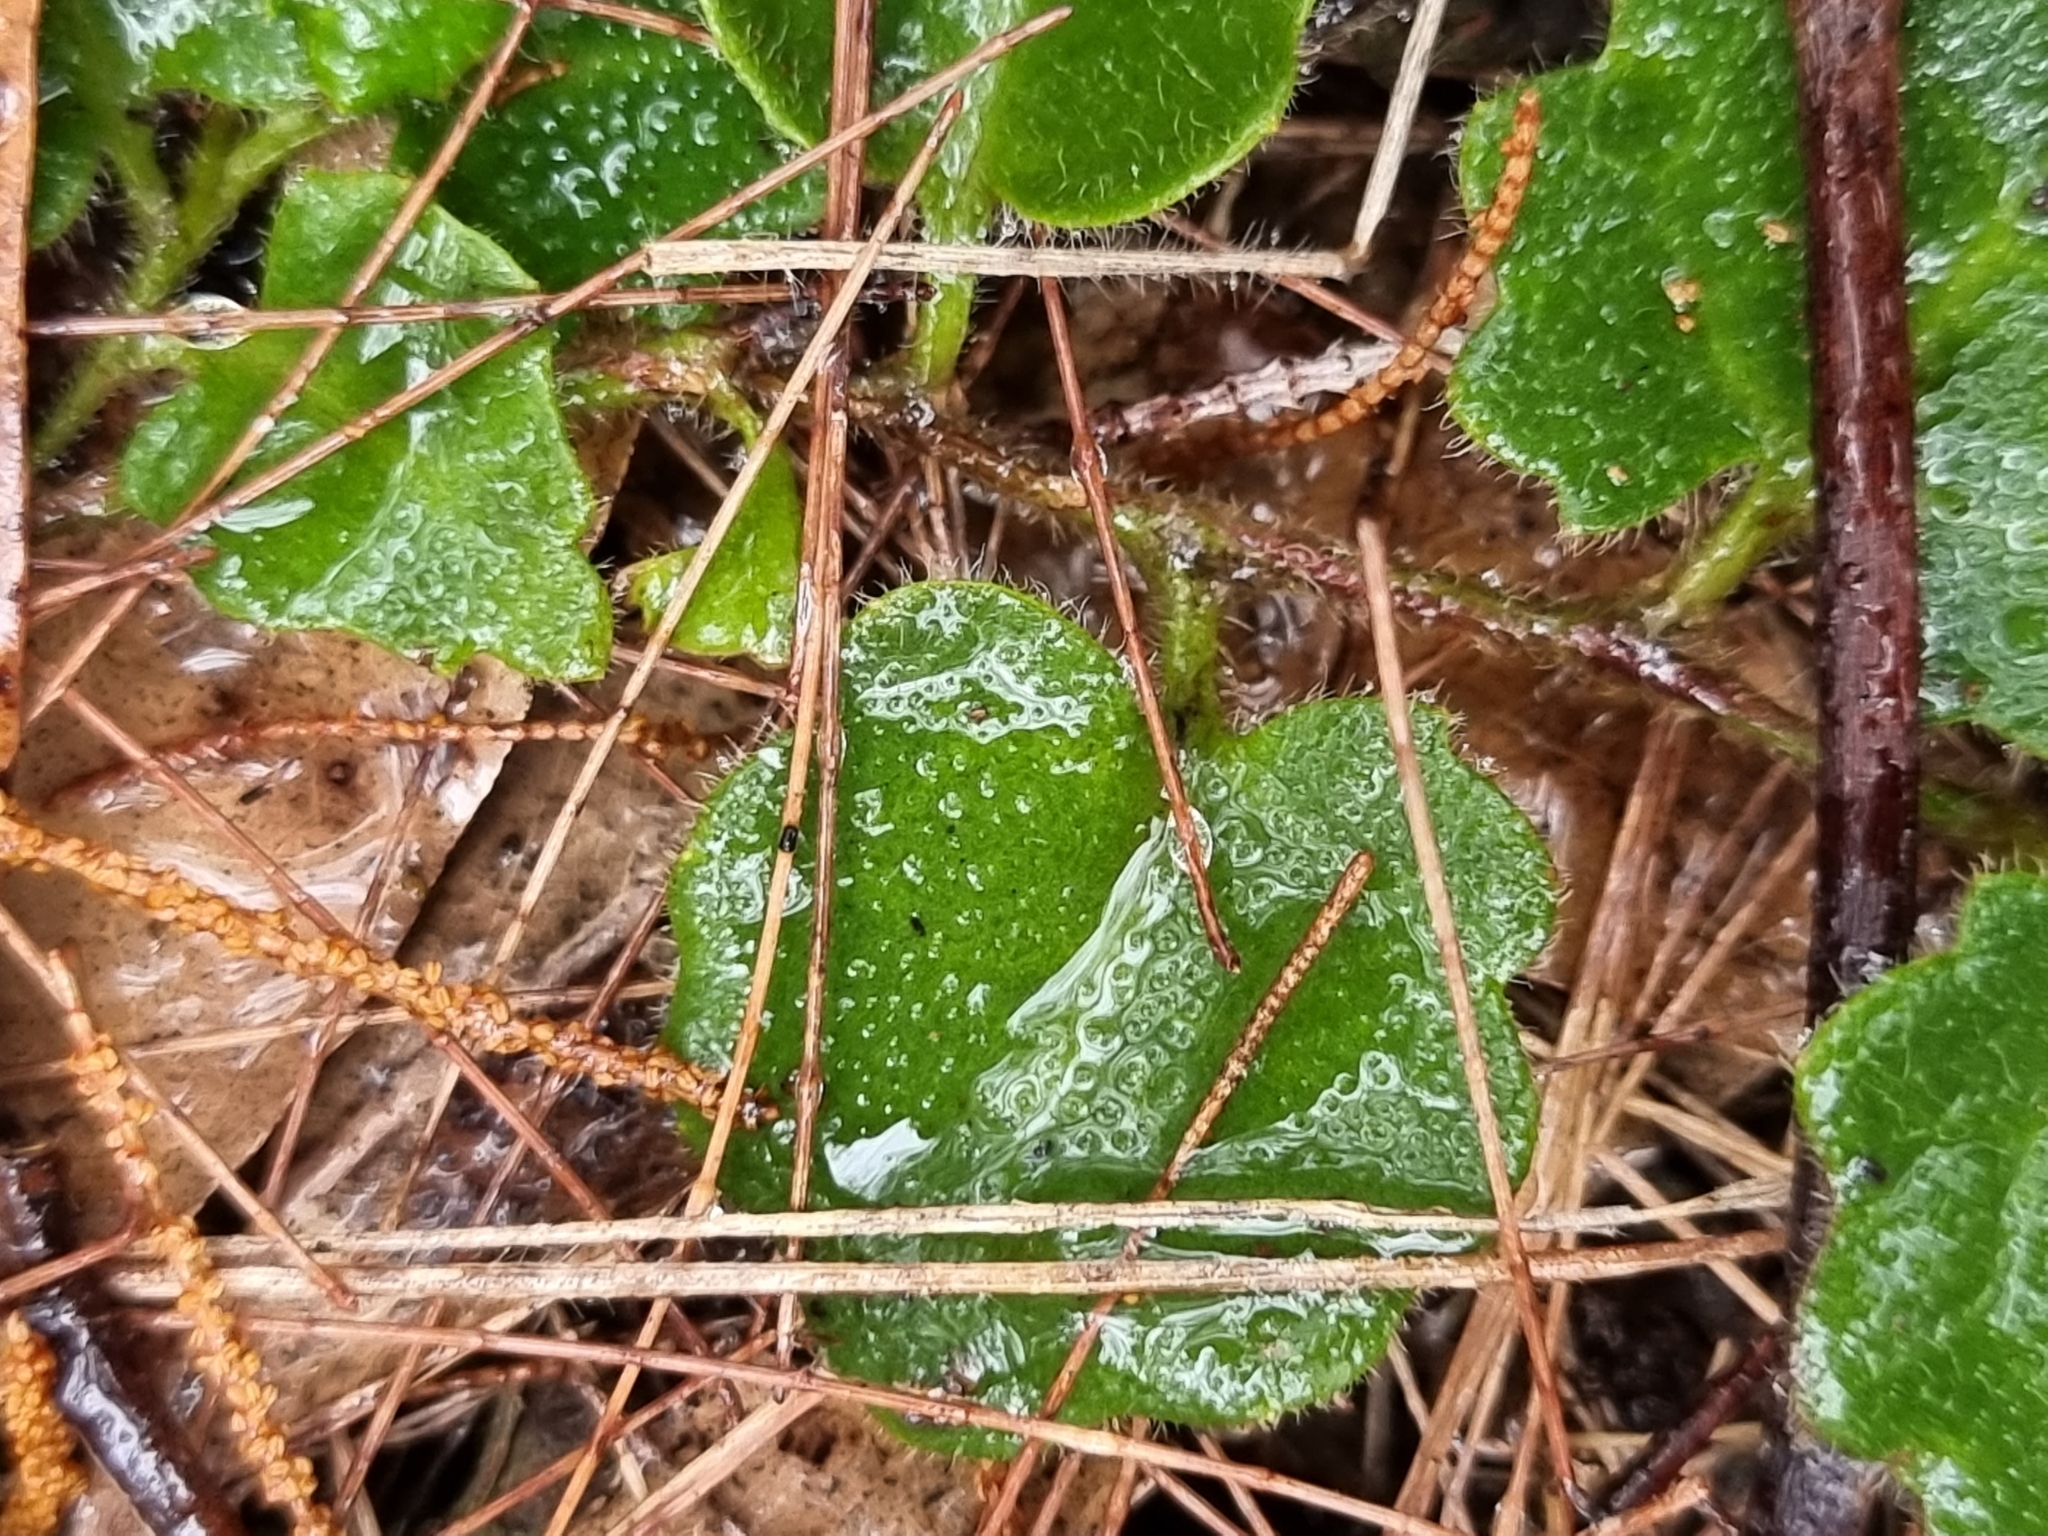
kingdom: Plantae
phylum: Tracheophyta
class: Magnoliopsida
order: Asterales
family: Goodeniaceae
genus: Goodenia
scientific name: Goodenia rotundifolia
